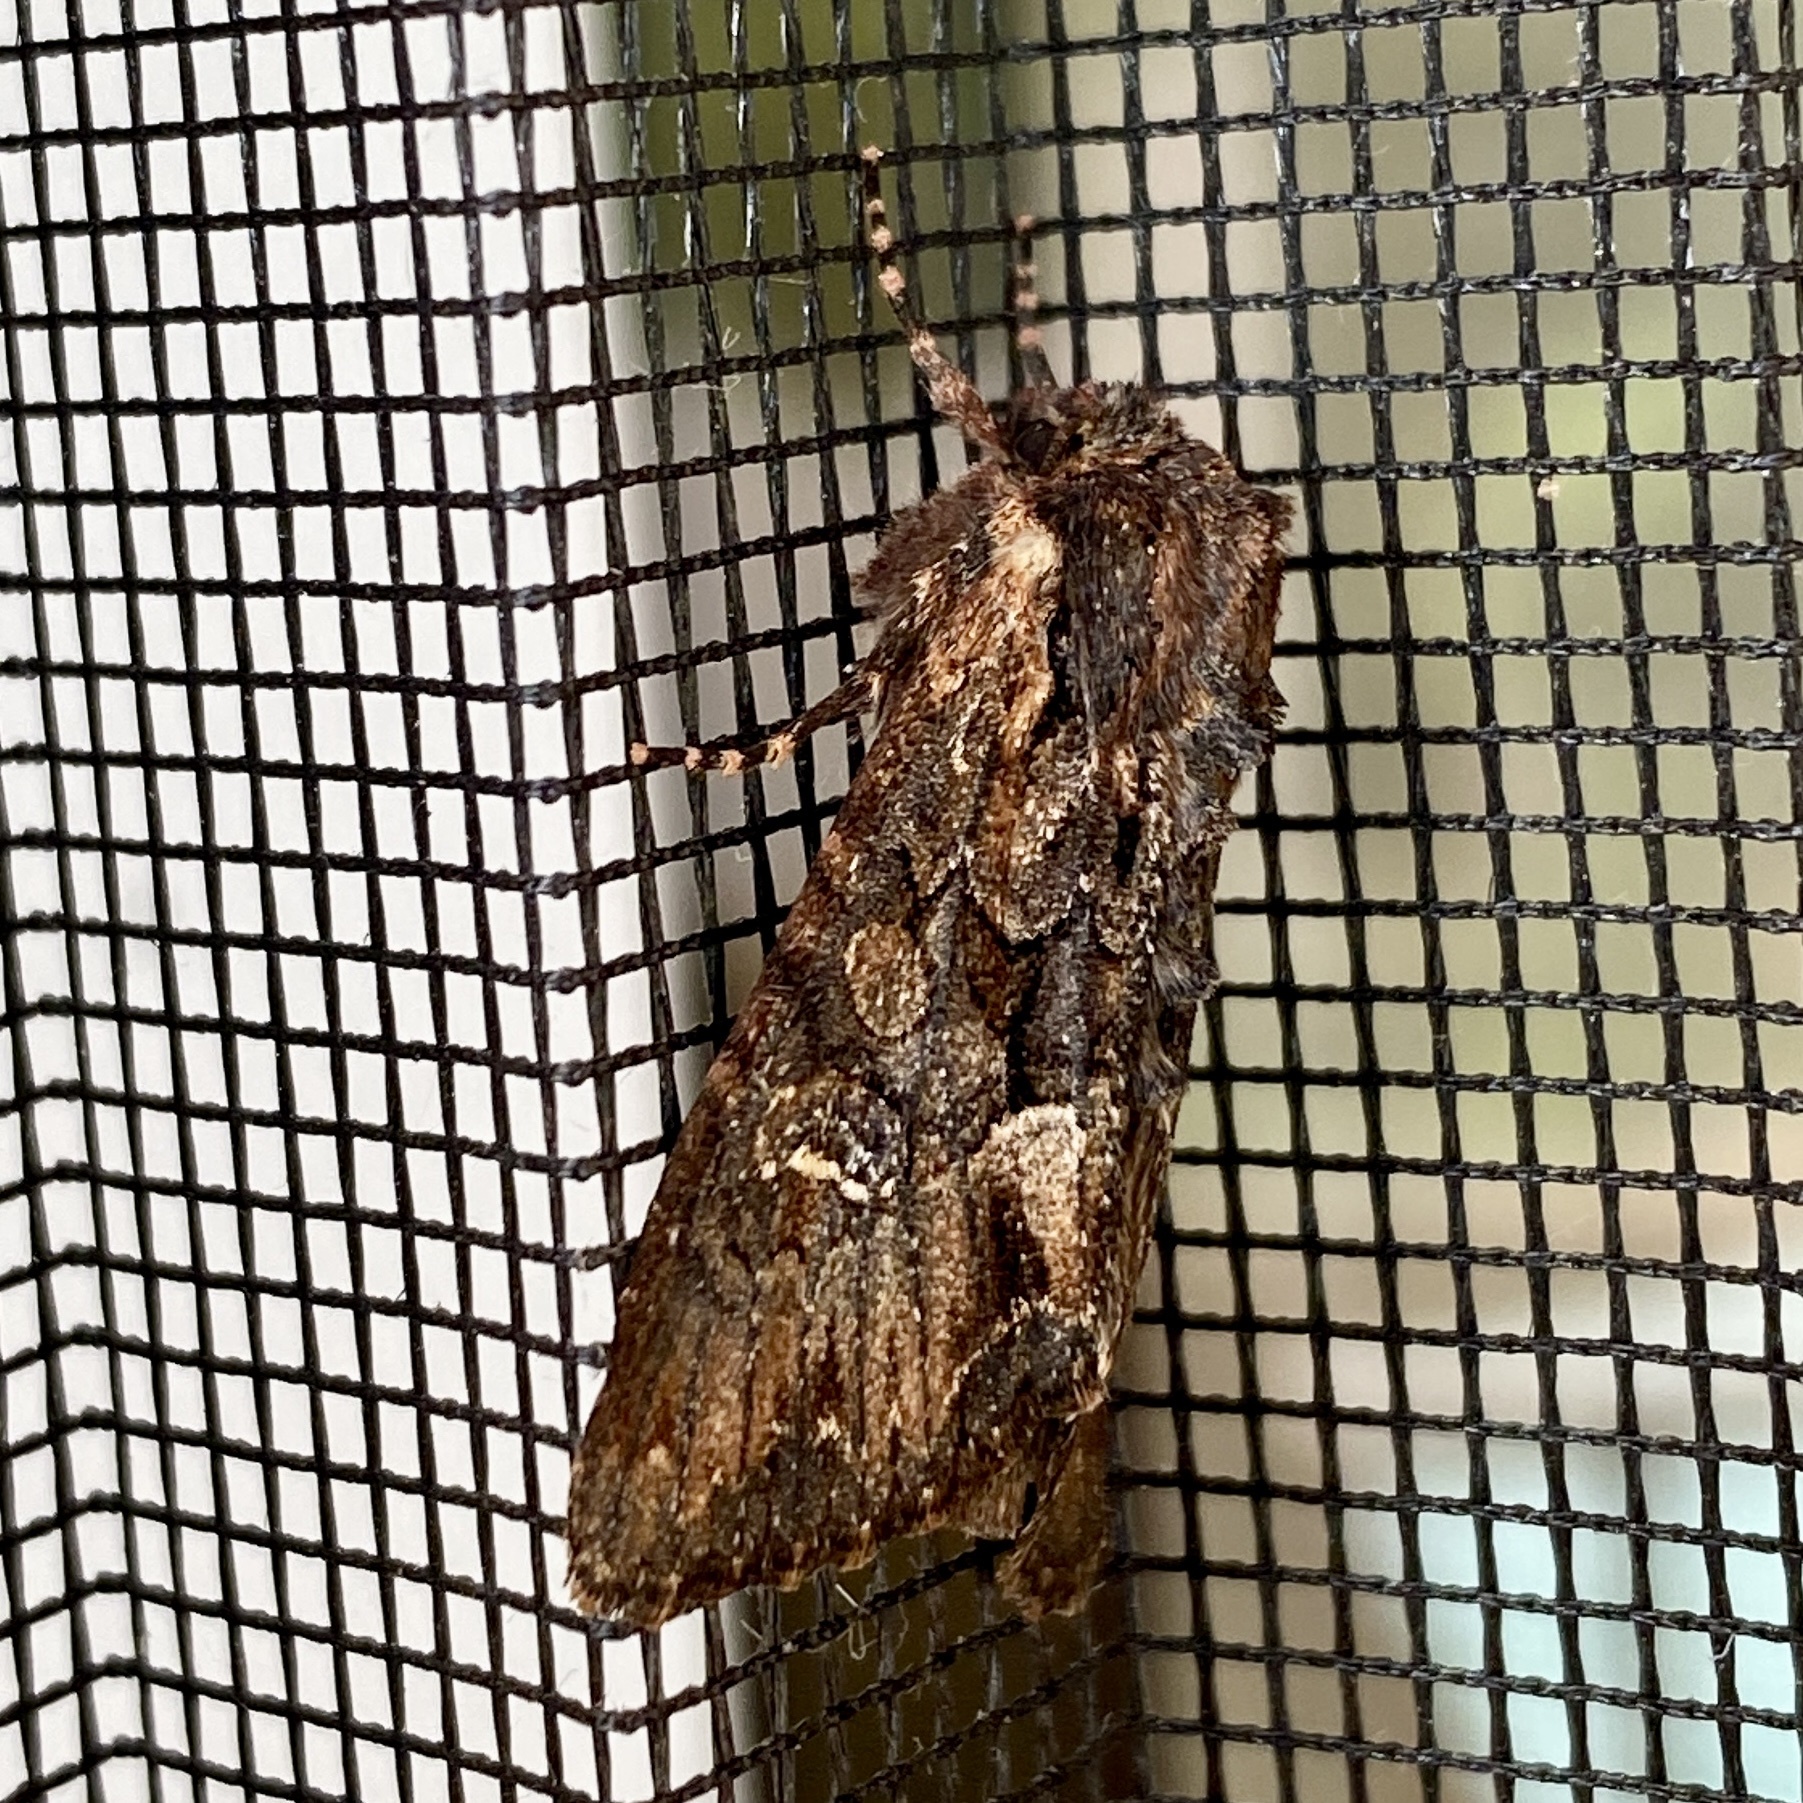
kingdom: Animalia
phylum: Arthropoda
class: Insecta
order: Lepidoptera
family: Noctuidae
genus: Mniotype
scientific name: Mniotype occidentalis
